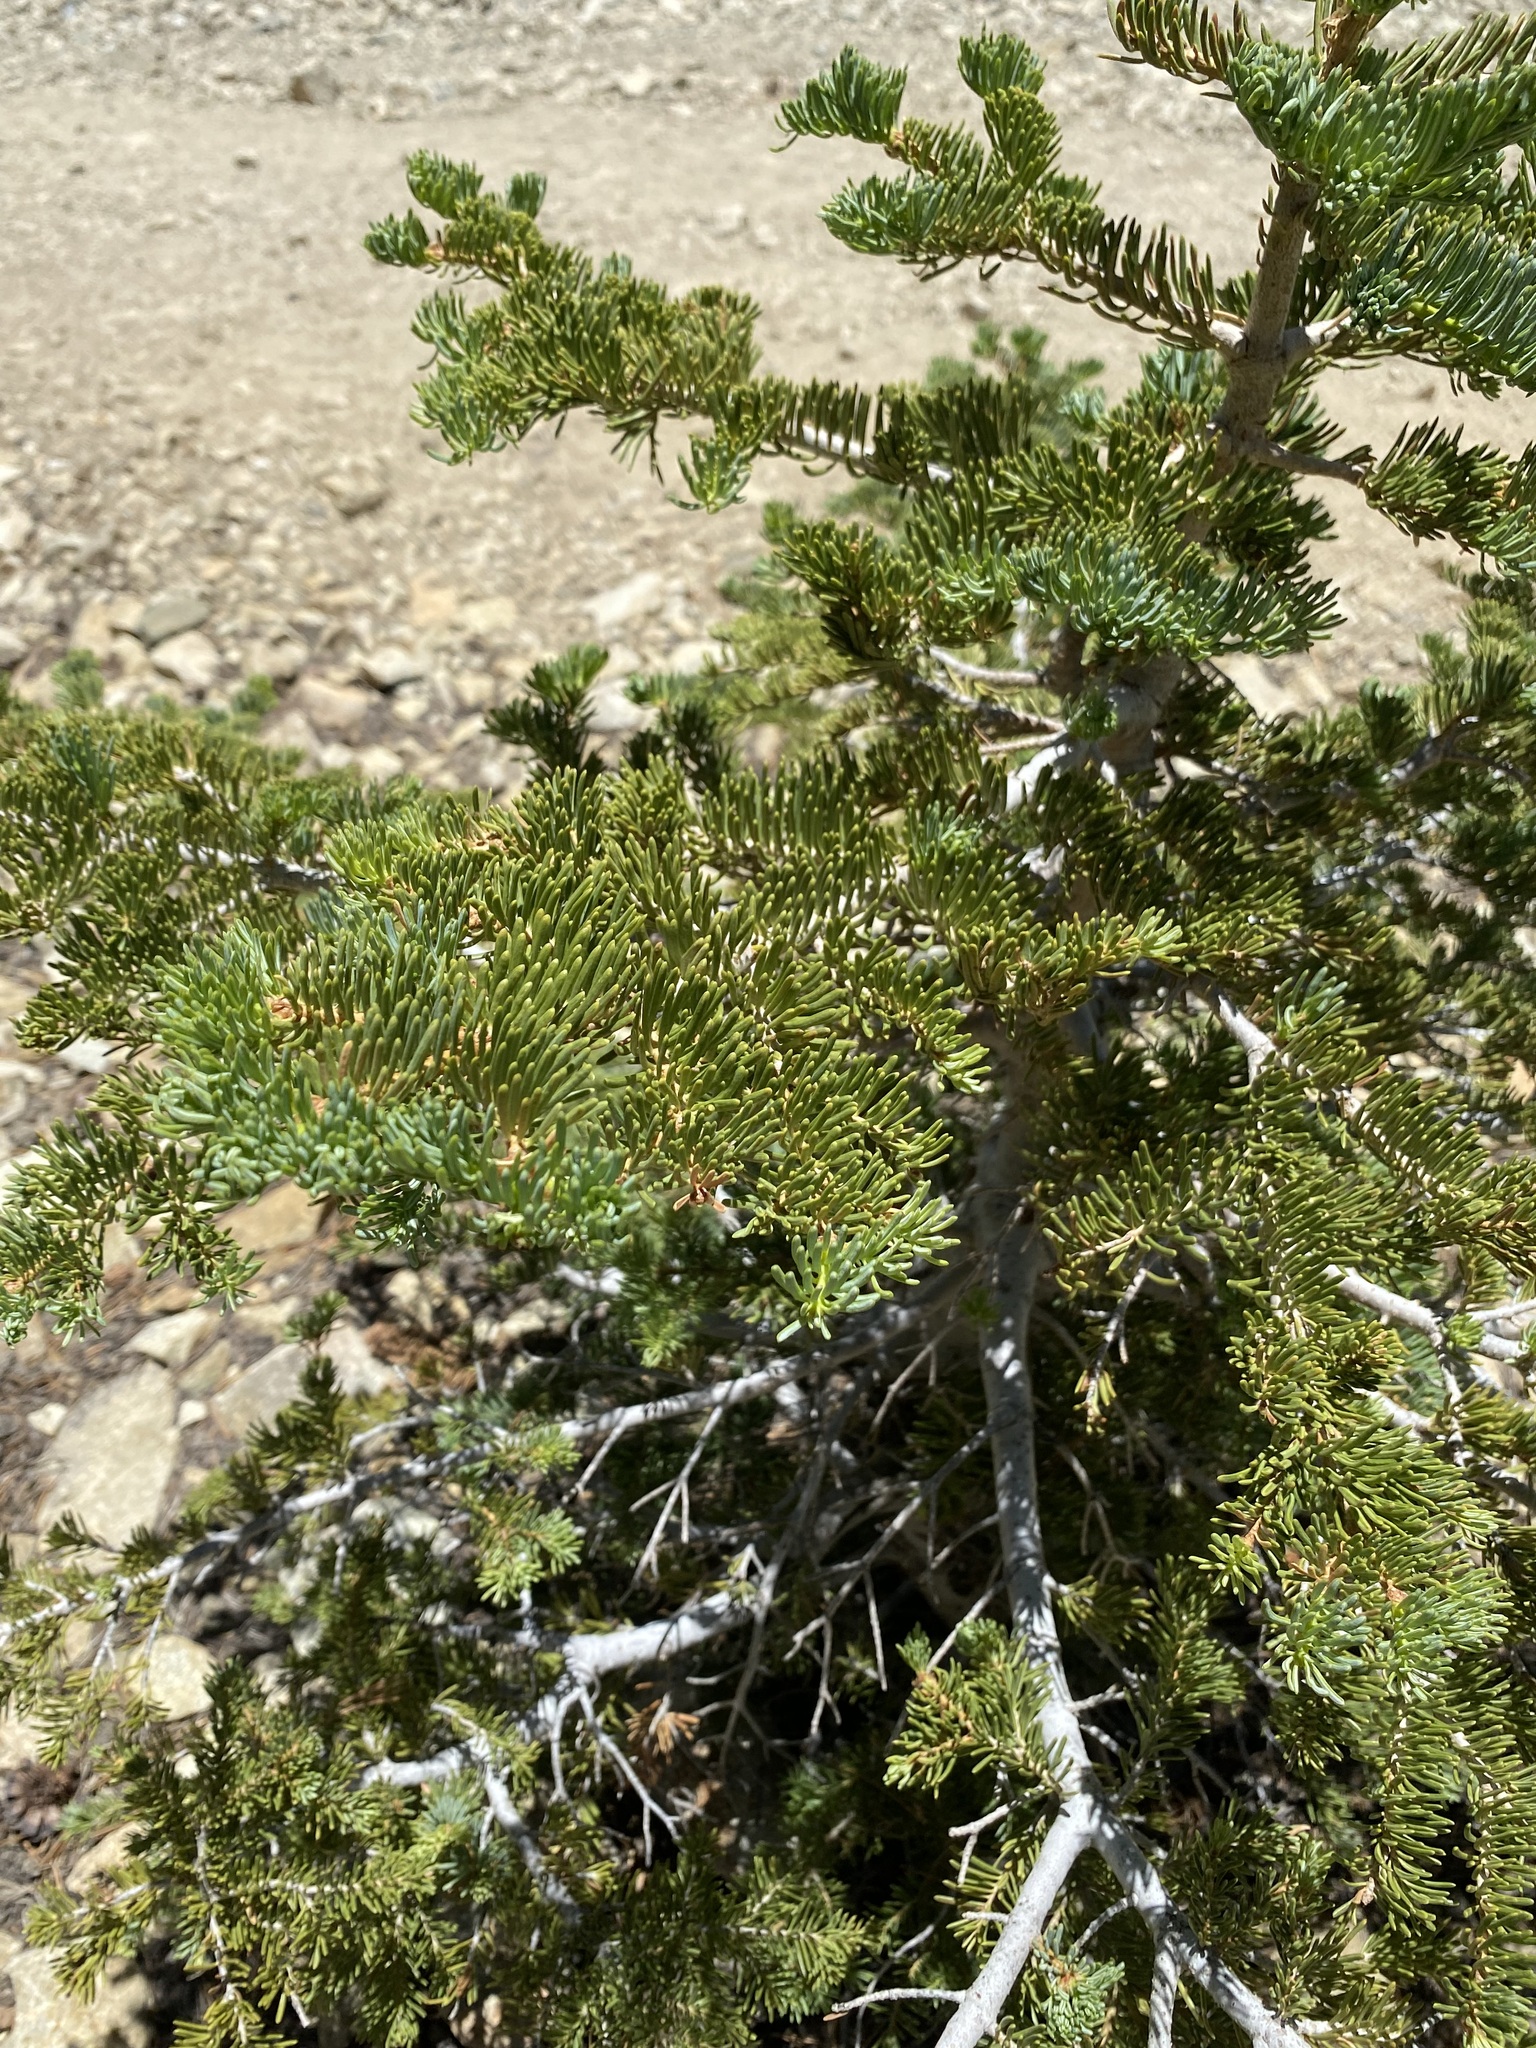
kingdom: Plantae
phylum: Tracheophyta
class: Pinopsida
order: Pinales
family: Pinaceae
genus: Abies
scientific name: Abies concolor
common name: Colorado fir
